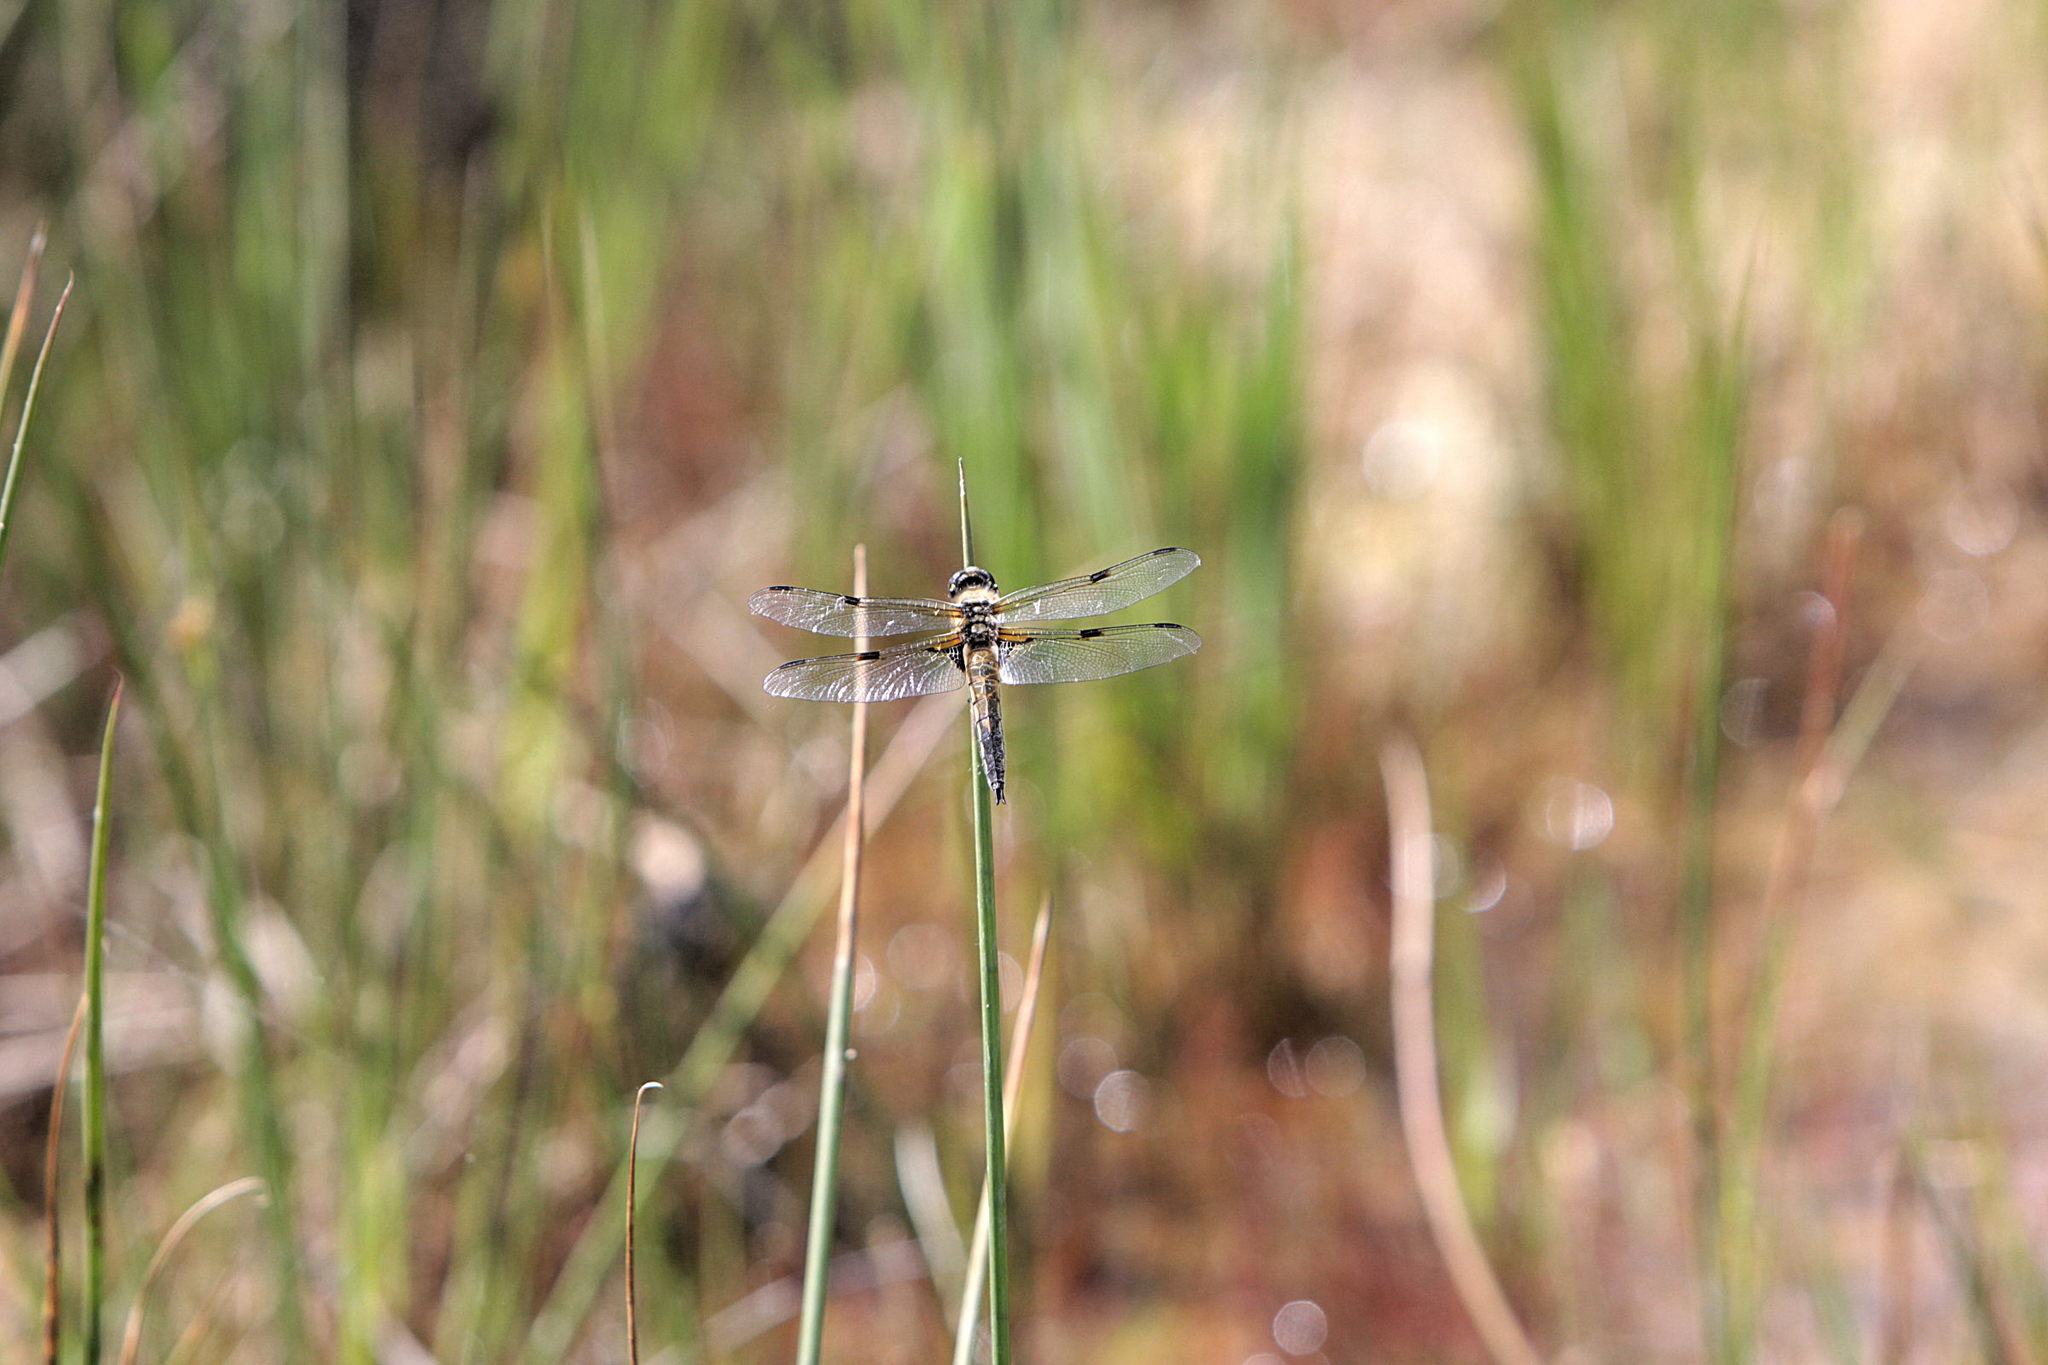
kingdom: Animalia
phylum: Arthropoda
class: Insecta
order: Odonata
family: Libellulidae
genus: Libellula
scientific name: Libellula quadrimaculata
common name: Four-spotted chaser
